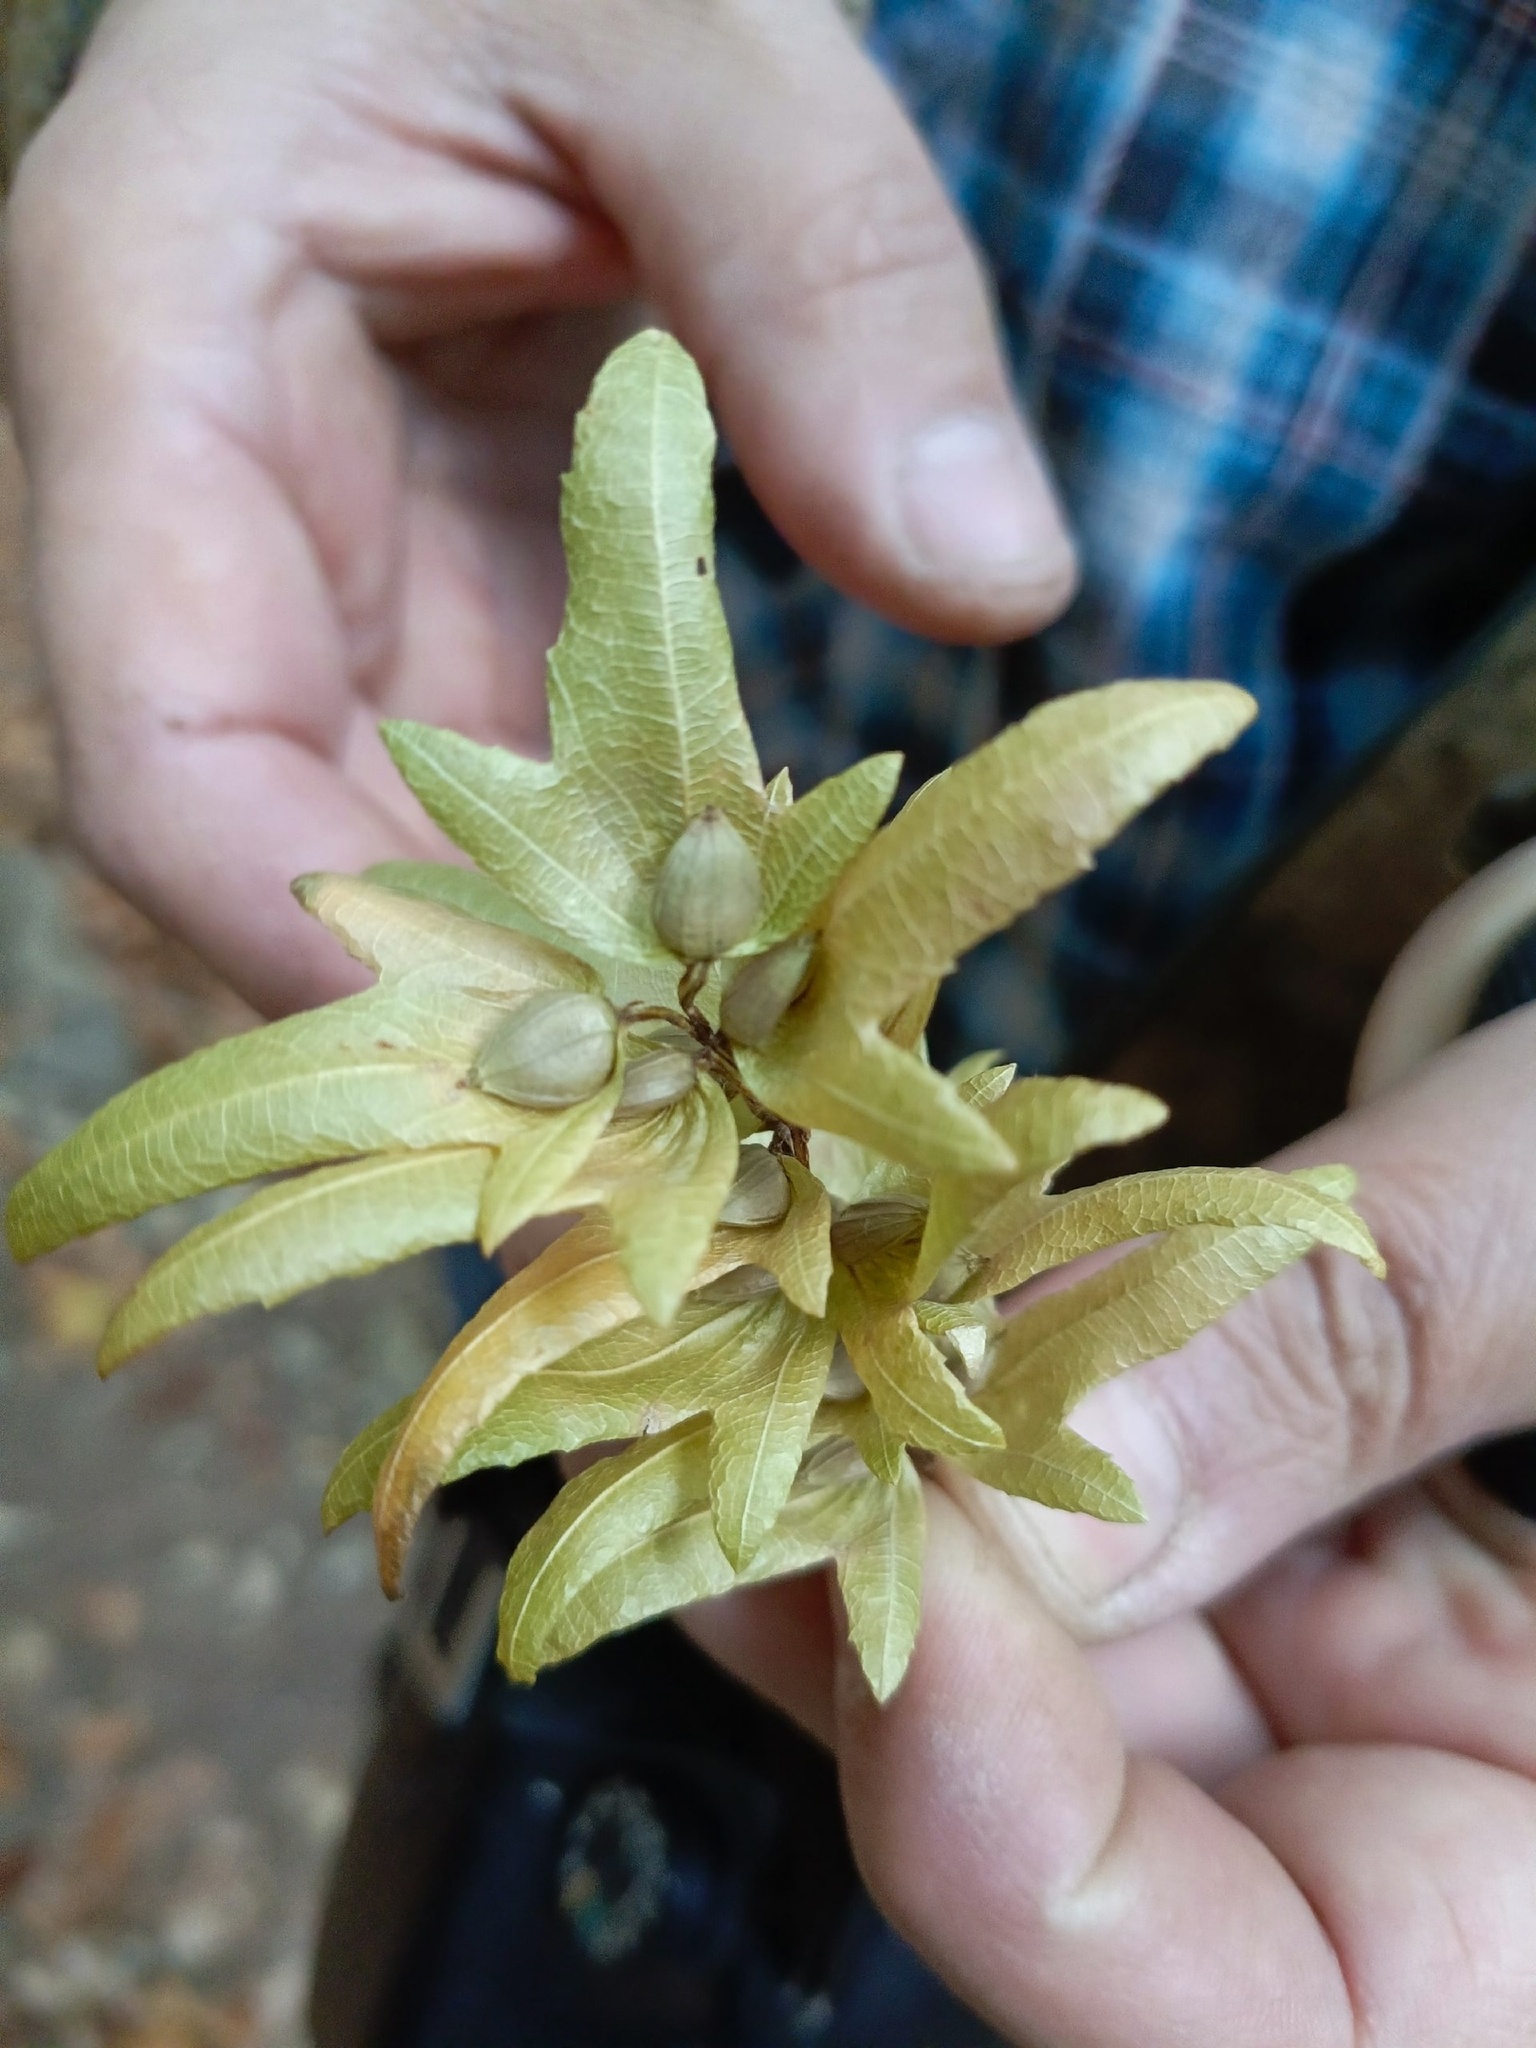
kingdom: Plantae
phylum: Tracheophyta
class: Magnoliopsida
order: Fagales
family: Betulaceae
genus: Carpinus
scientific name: Carpinus betulus
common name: Hornbeam
